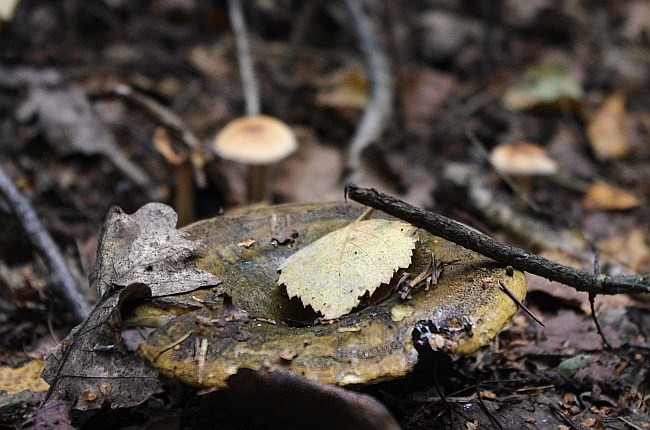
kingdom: Fungi
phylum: Basidiomycota
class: Agaricomycetes
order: Russulales
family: Russulaceae
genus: Lactarius
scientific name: Lactarius turpis
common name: Ugly milk-cap
